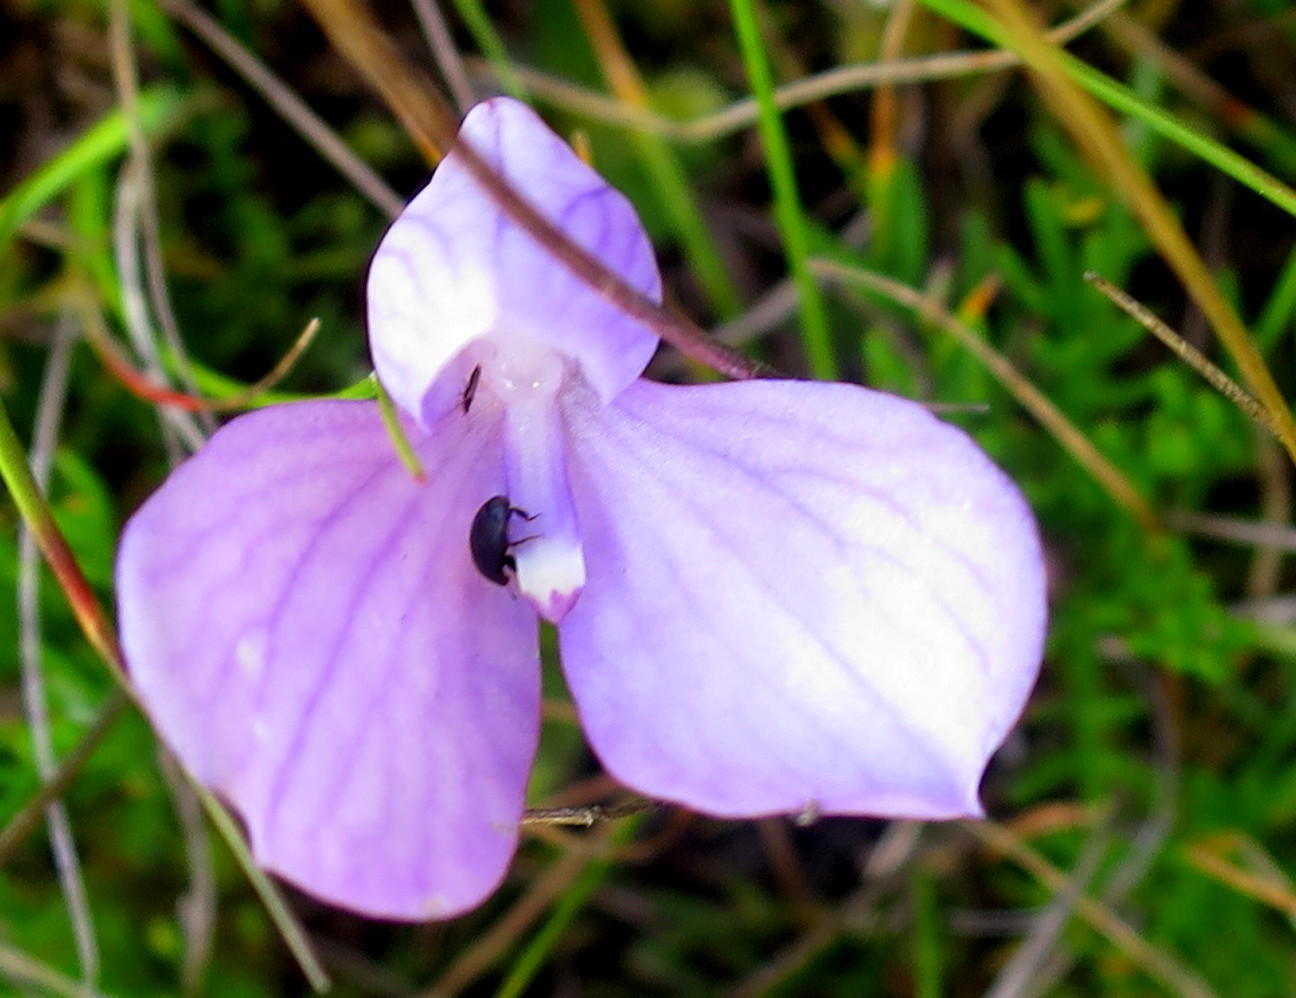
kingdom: Plantae
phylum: Tracheophyta
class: Liliopsida
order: Asparagales
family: Orchidaceae
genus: Disa
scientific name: Disa schizodioides
